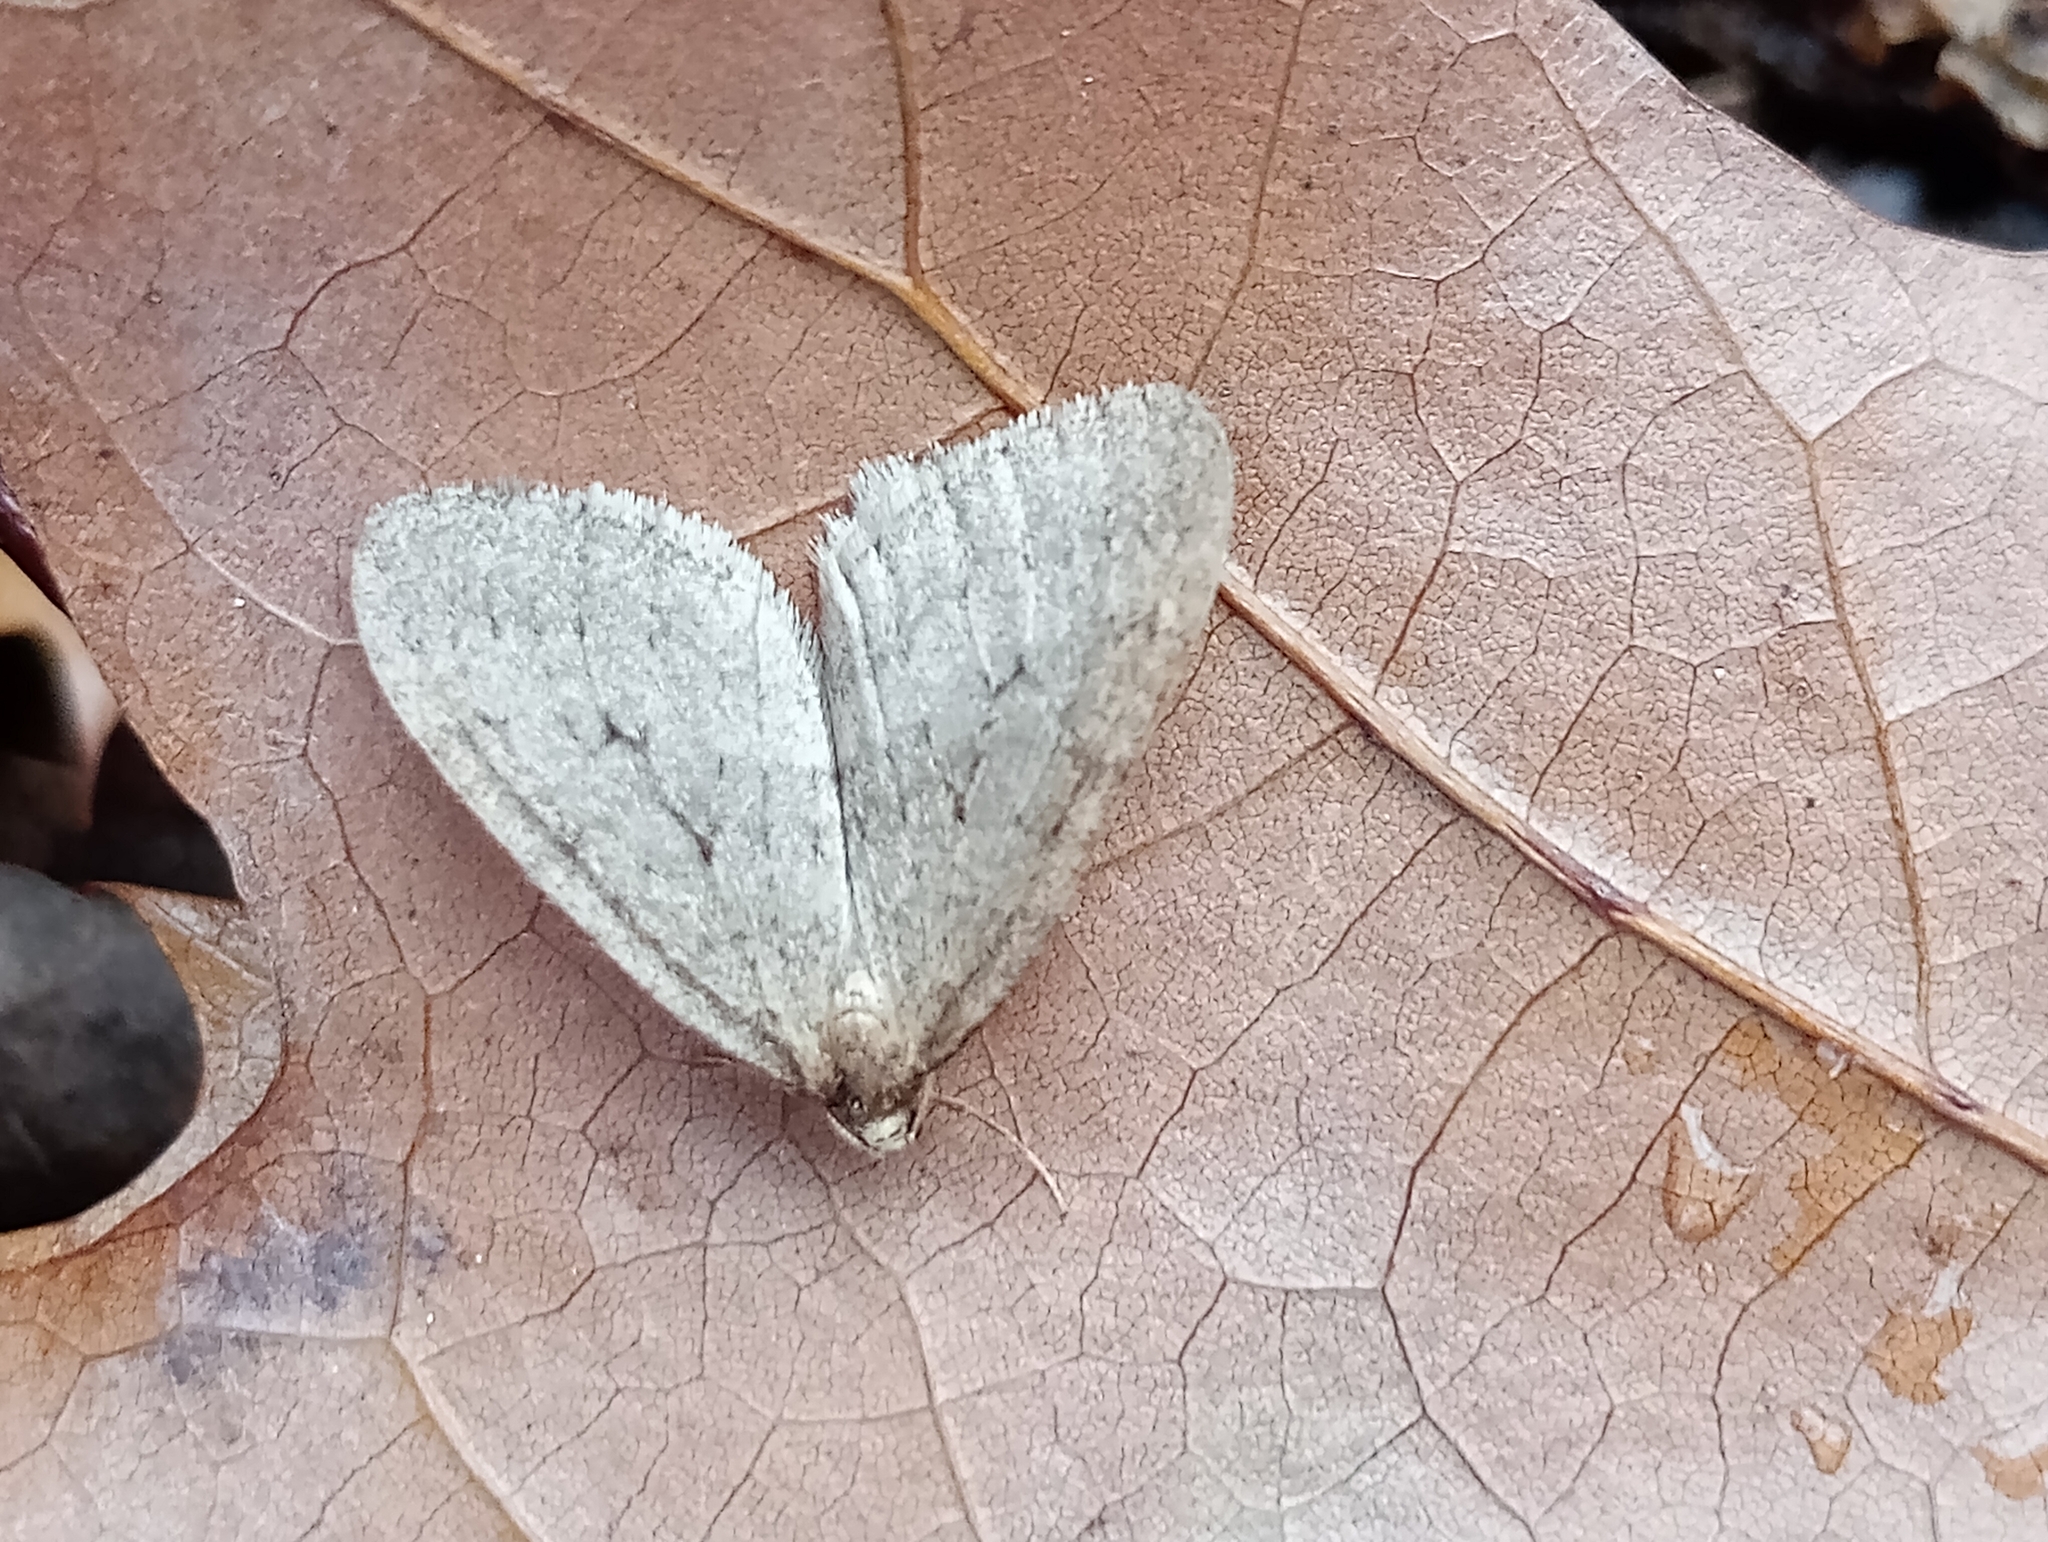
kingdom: Animalia
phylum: Arthropoda
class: Insecta
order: Lepidoptera
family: Geometridae
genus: Operophtera
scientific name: Operophtera brumata
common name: Winter moth
